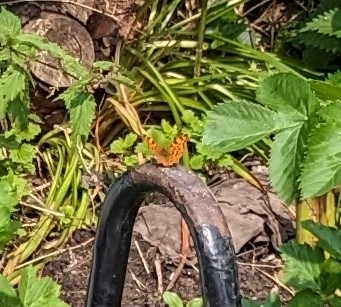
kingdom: Animalia
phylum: Arthropoda
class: Insecta
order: Lepidoptera
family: Nymphalidae
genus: Polygonia
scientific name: Polygonia c-album
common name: Comma
